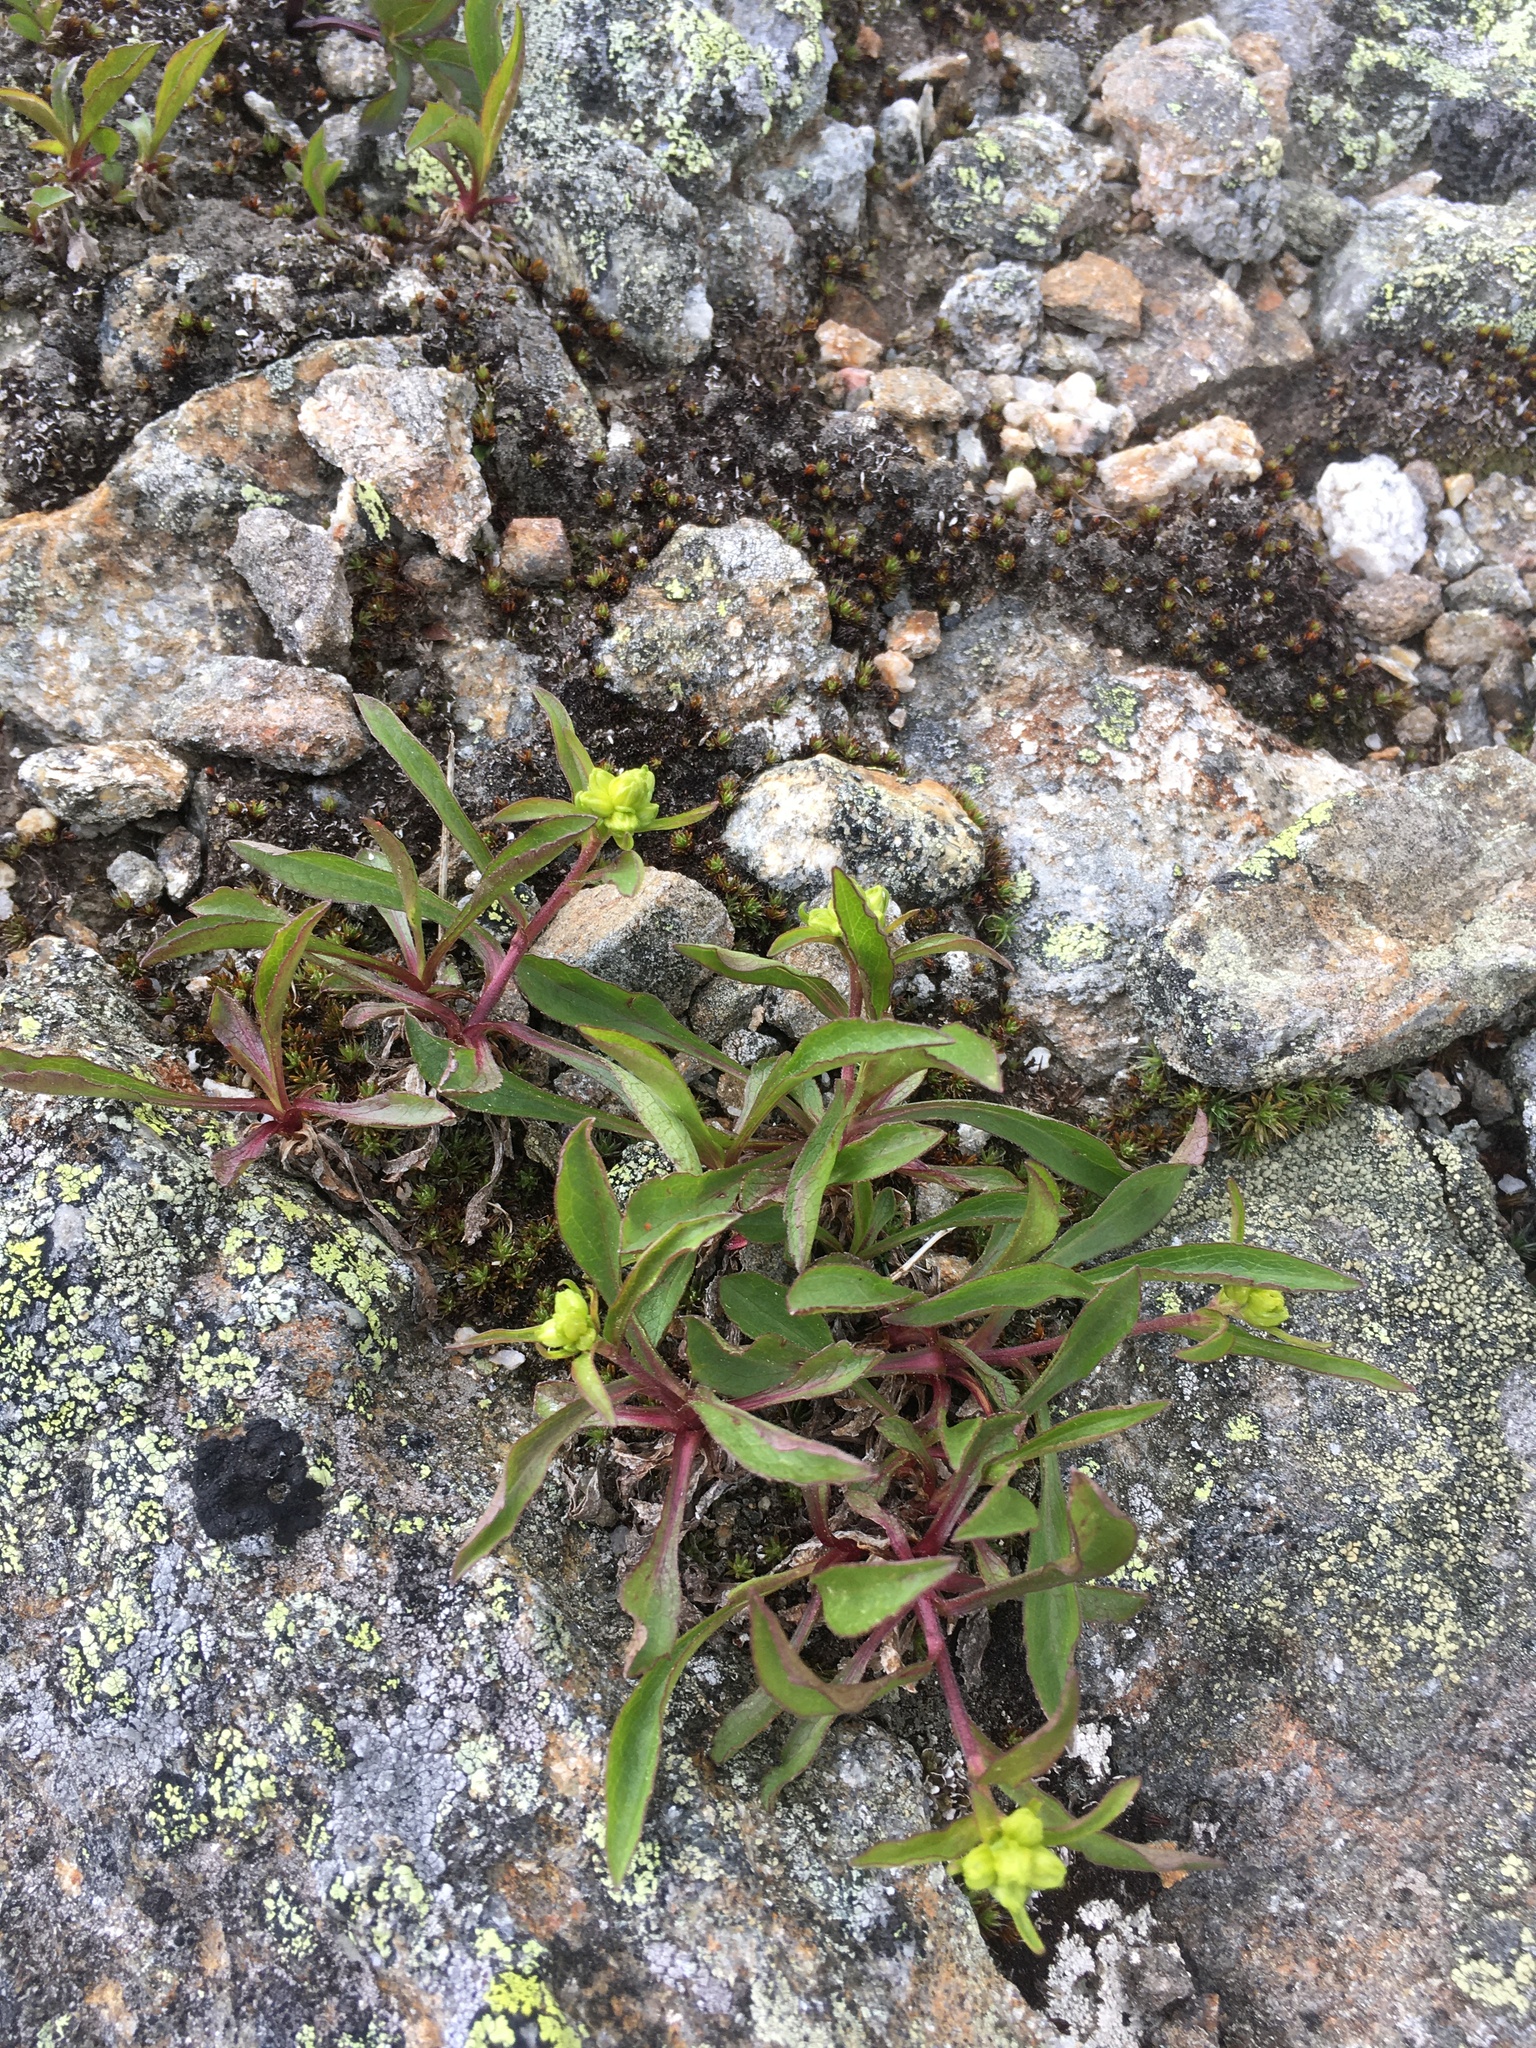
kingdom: Plantae
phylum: Tracheophyta
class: Magnoliopsida
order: Asterales
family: Asteraceae
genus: Solidago
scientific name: Solidago leiocarpa
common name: Cutler's alpine goldenrod
